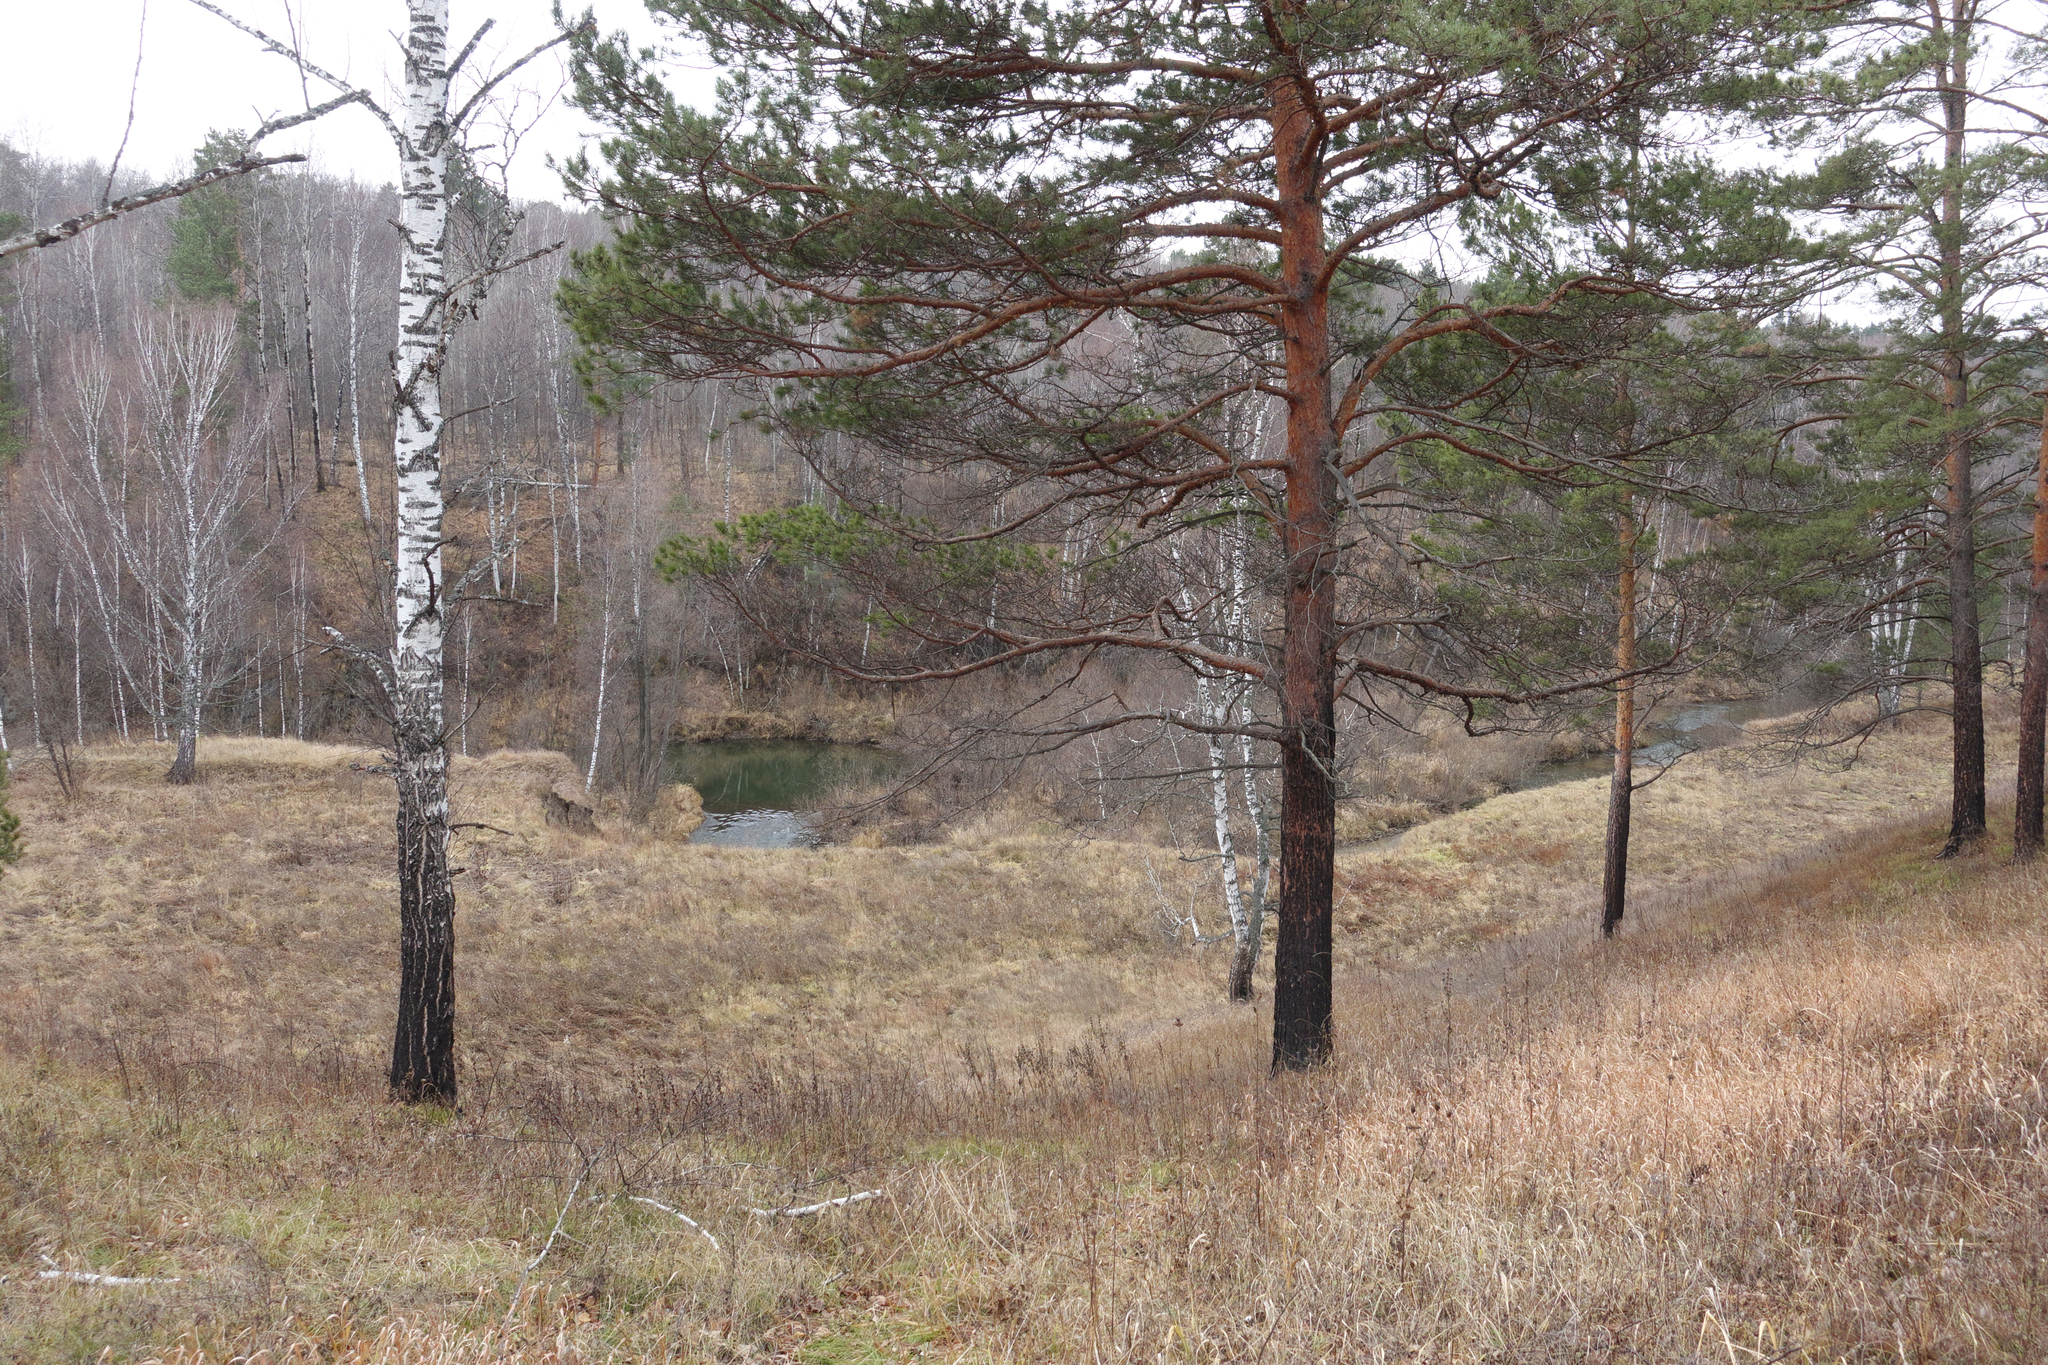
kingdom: Plantae
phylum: Tracheophyta
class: Pinopsida
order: Pinales
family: Pinaceae
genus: Pinus
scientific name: Pinus sylvestris
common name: Scots pine
